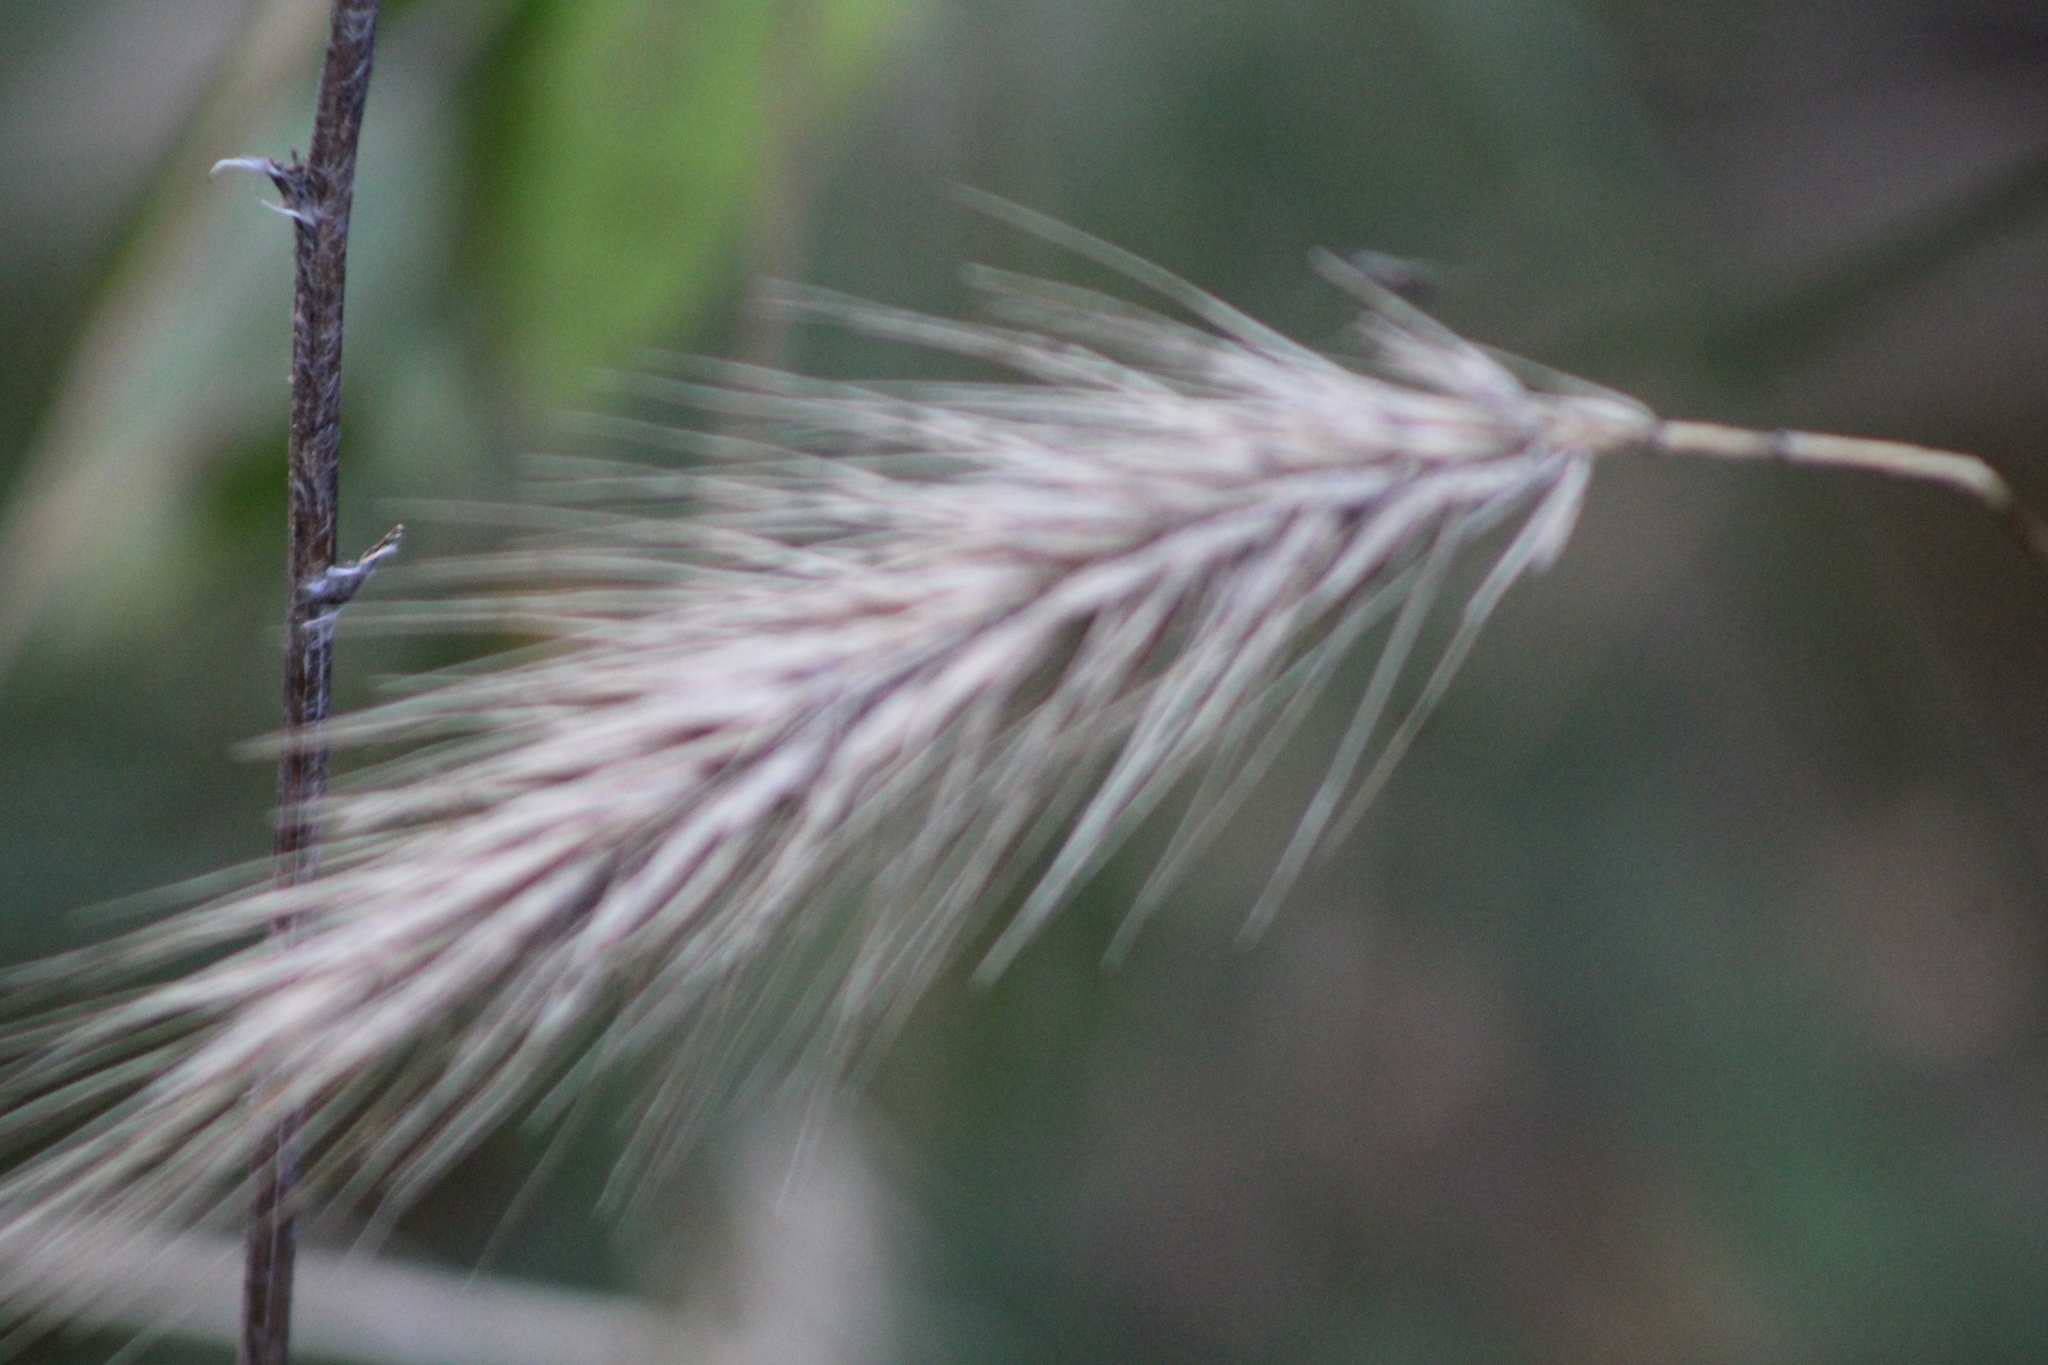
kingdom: Plantae
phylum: Tracheophyta
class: Liliopsida
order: Poales
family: Poaceae
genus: Elymus
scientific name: Elymus virginicus
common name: Common eastern wildrye
